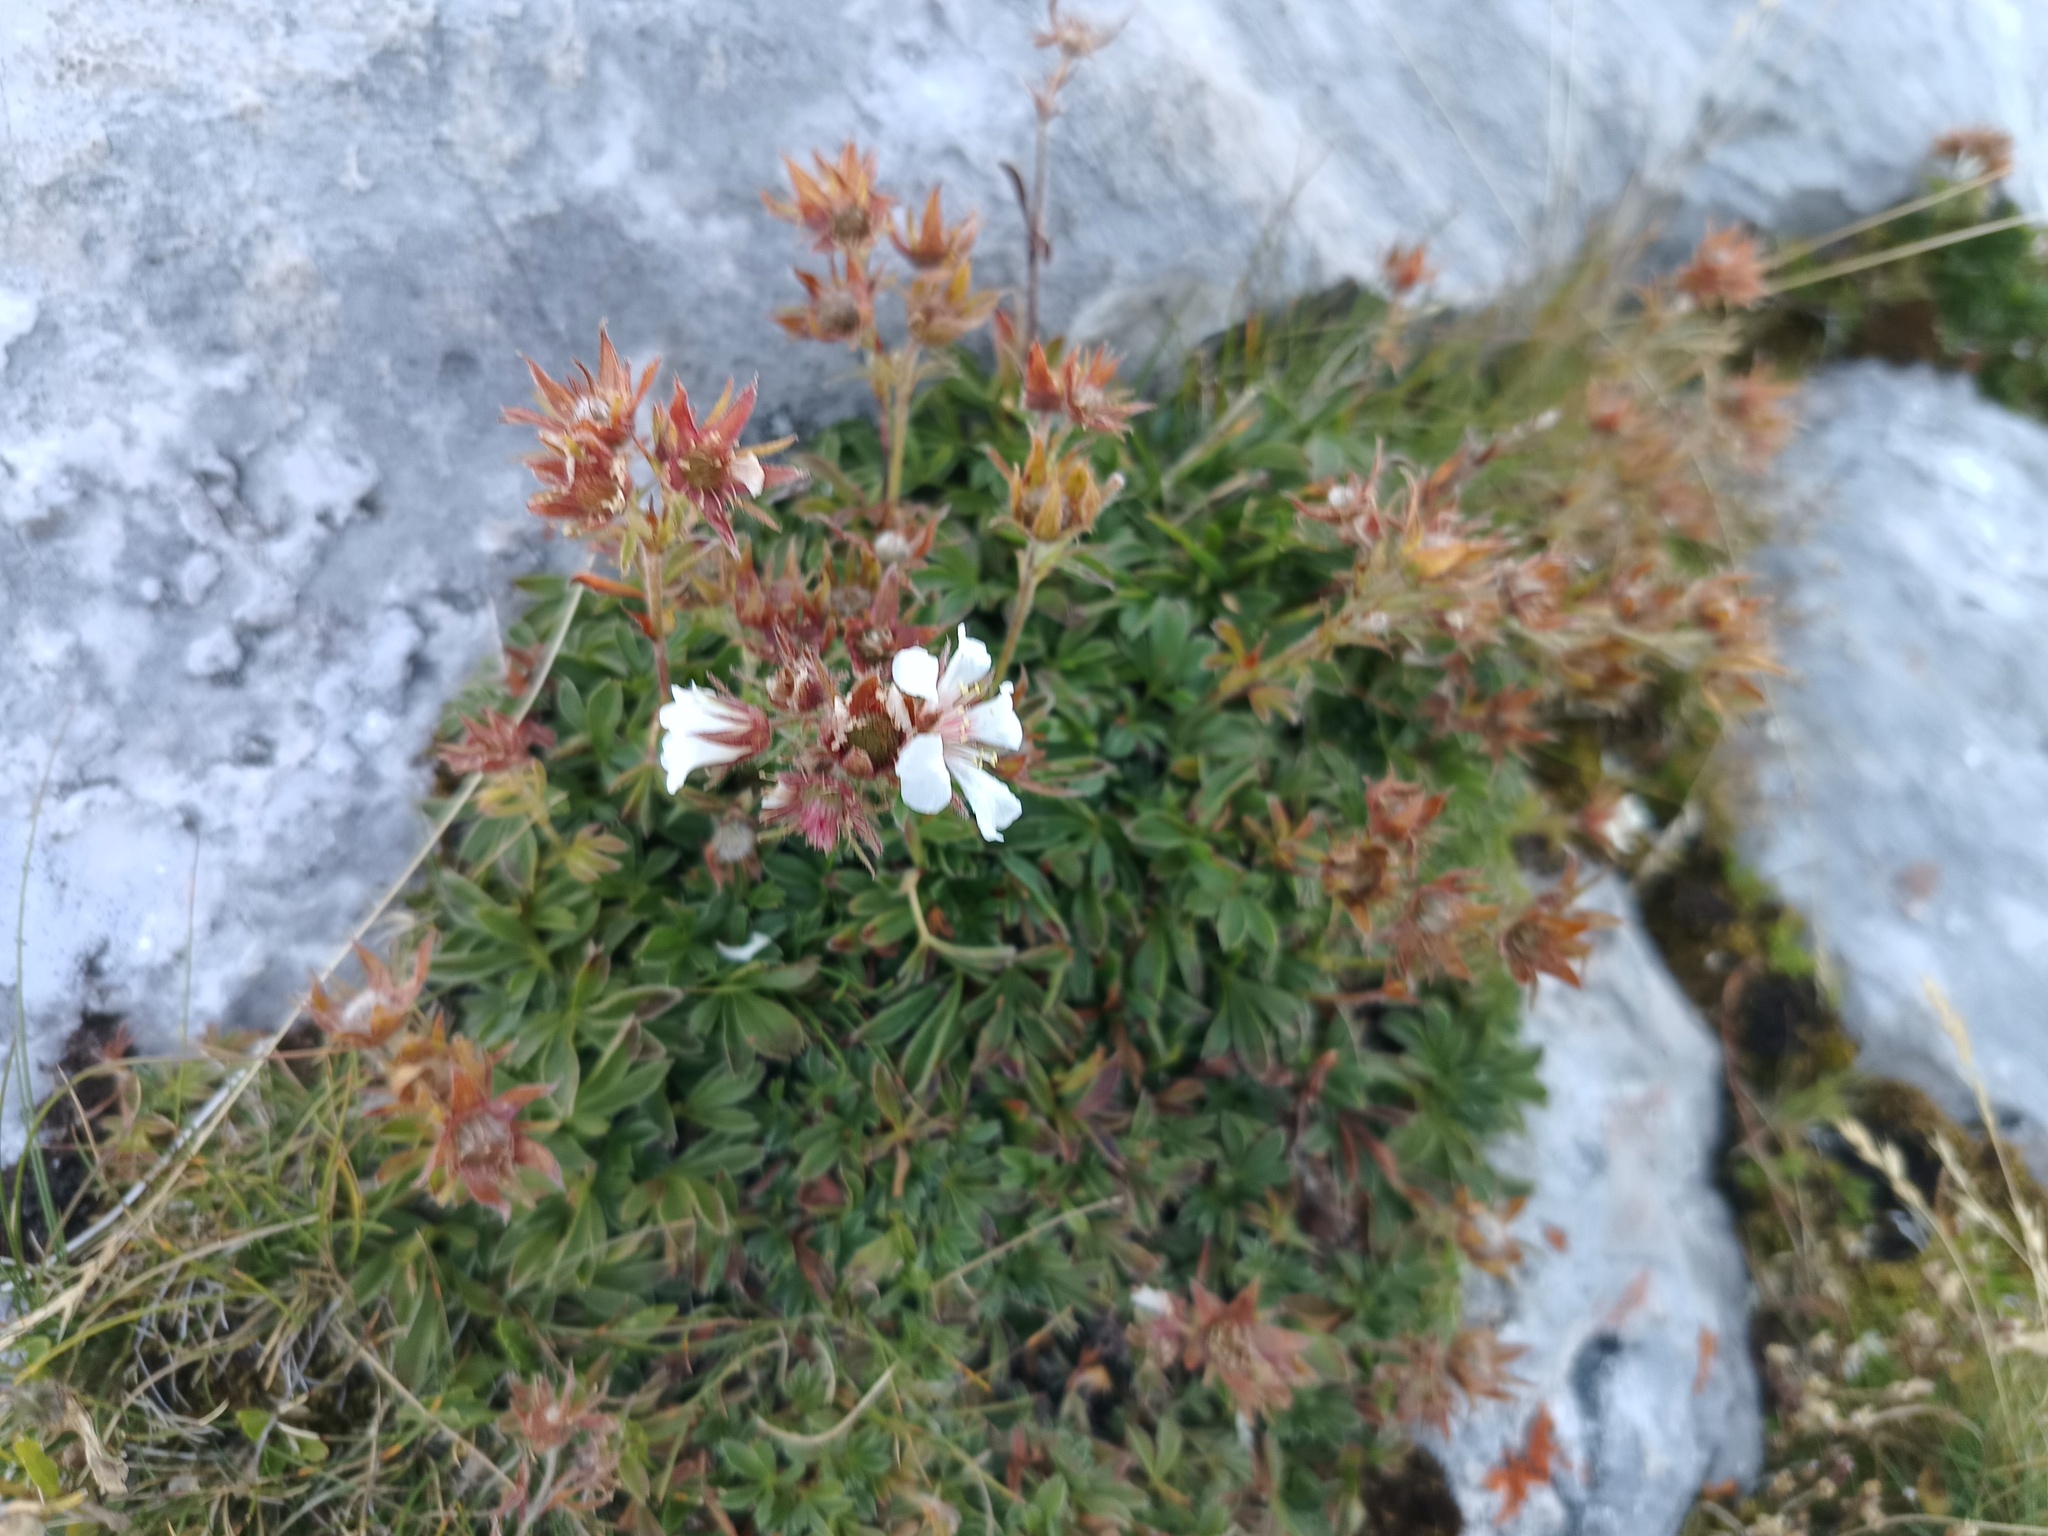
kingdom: Plantae
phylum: Tracheophyta
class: Magnoliopsida
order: Rosales
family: Rosaceae
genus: Potentilla
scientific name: Potentilla clusiana
